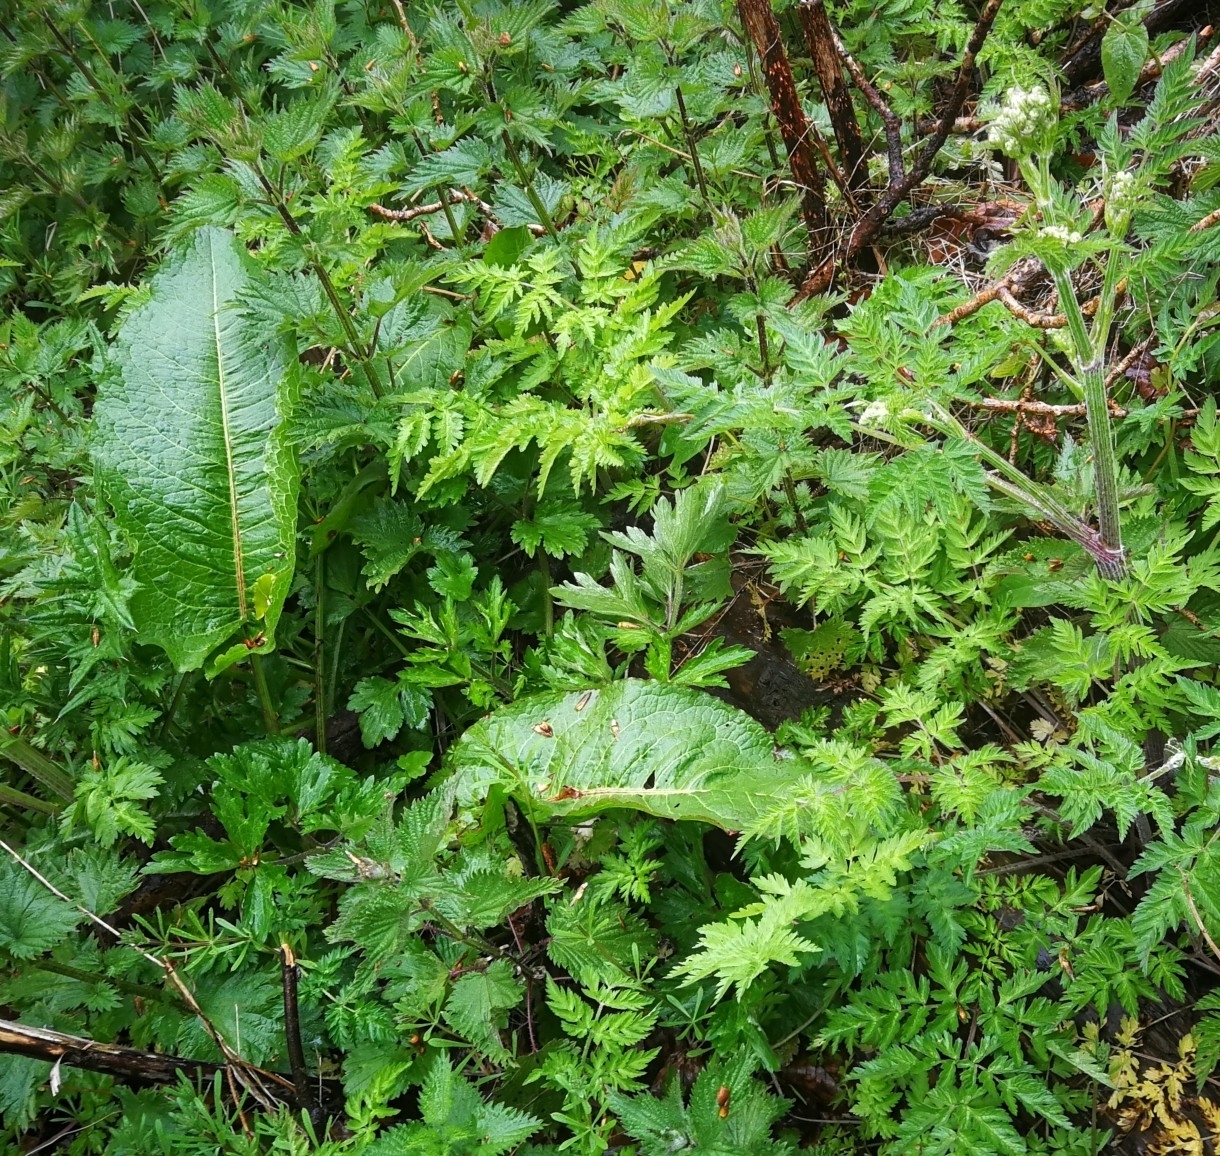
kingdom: Plantae
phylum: Tracheophyta
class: Magnoliopsida
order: Caryophyllales
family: Polygonaceae
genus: Rumex
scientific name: Rumex obtusifolius
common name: Bitter dock
